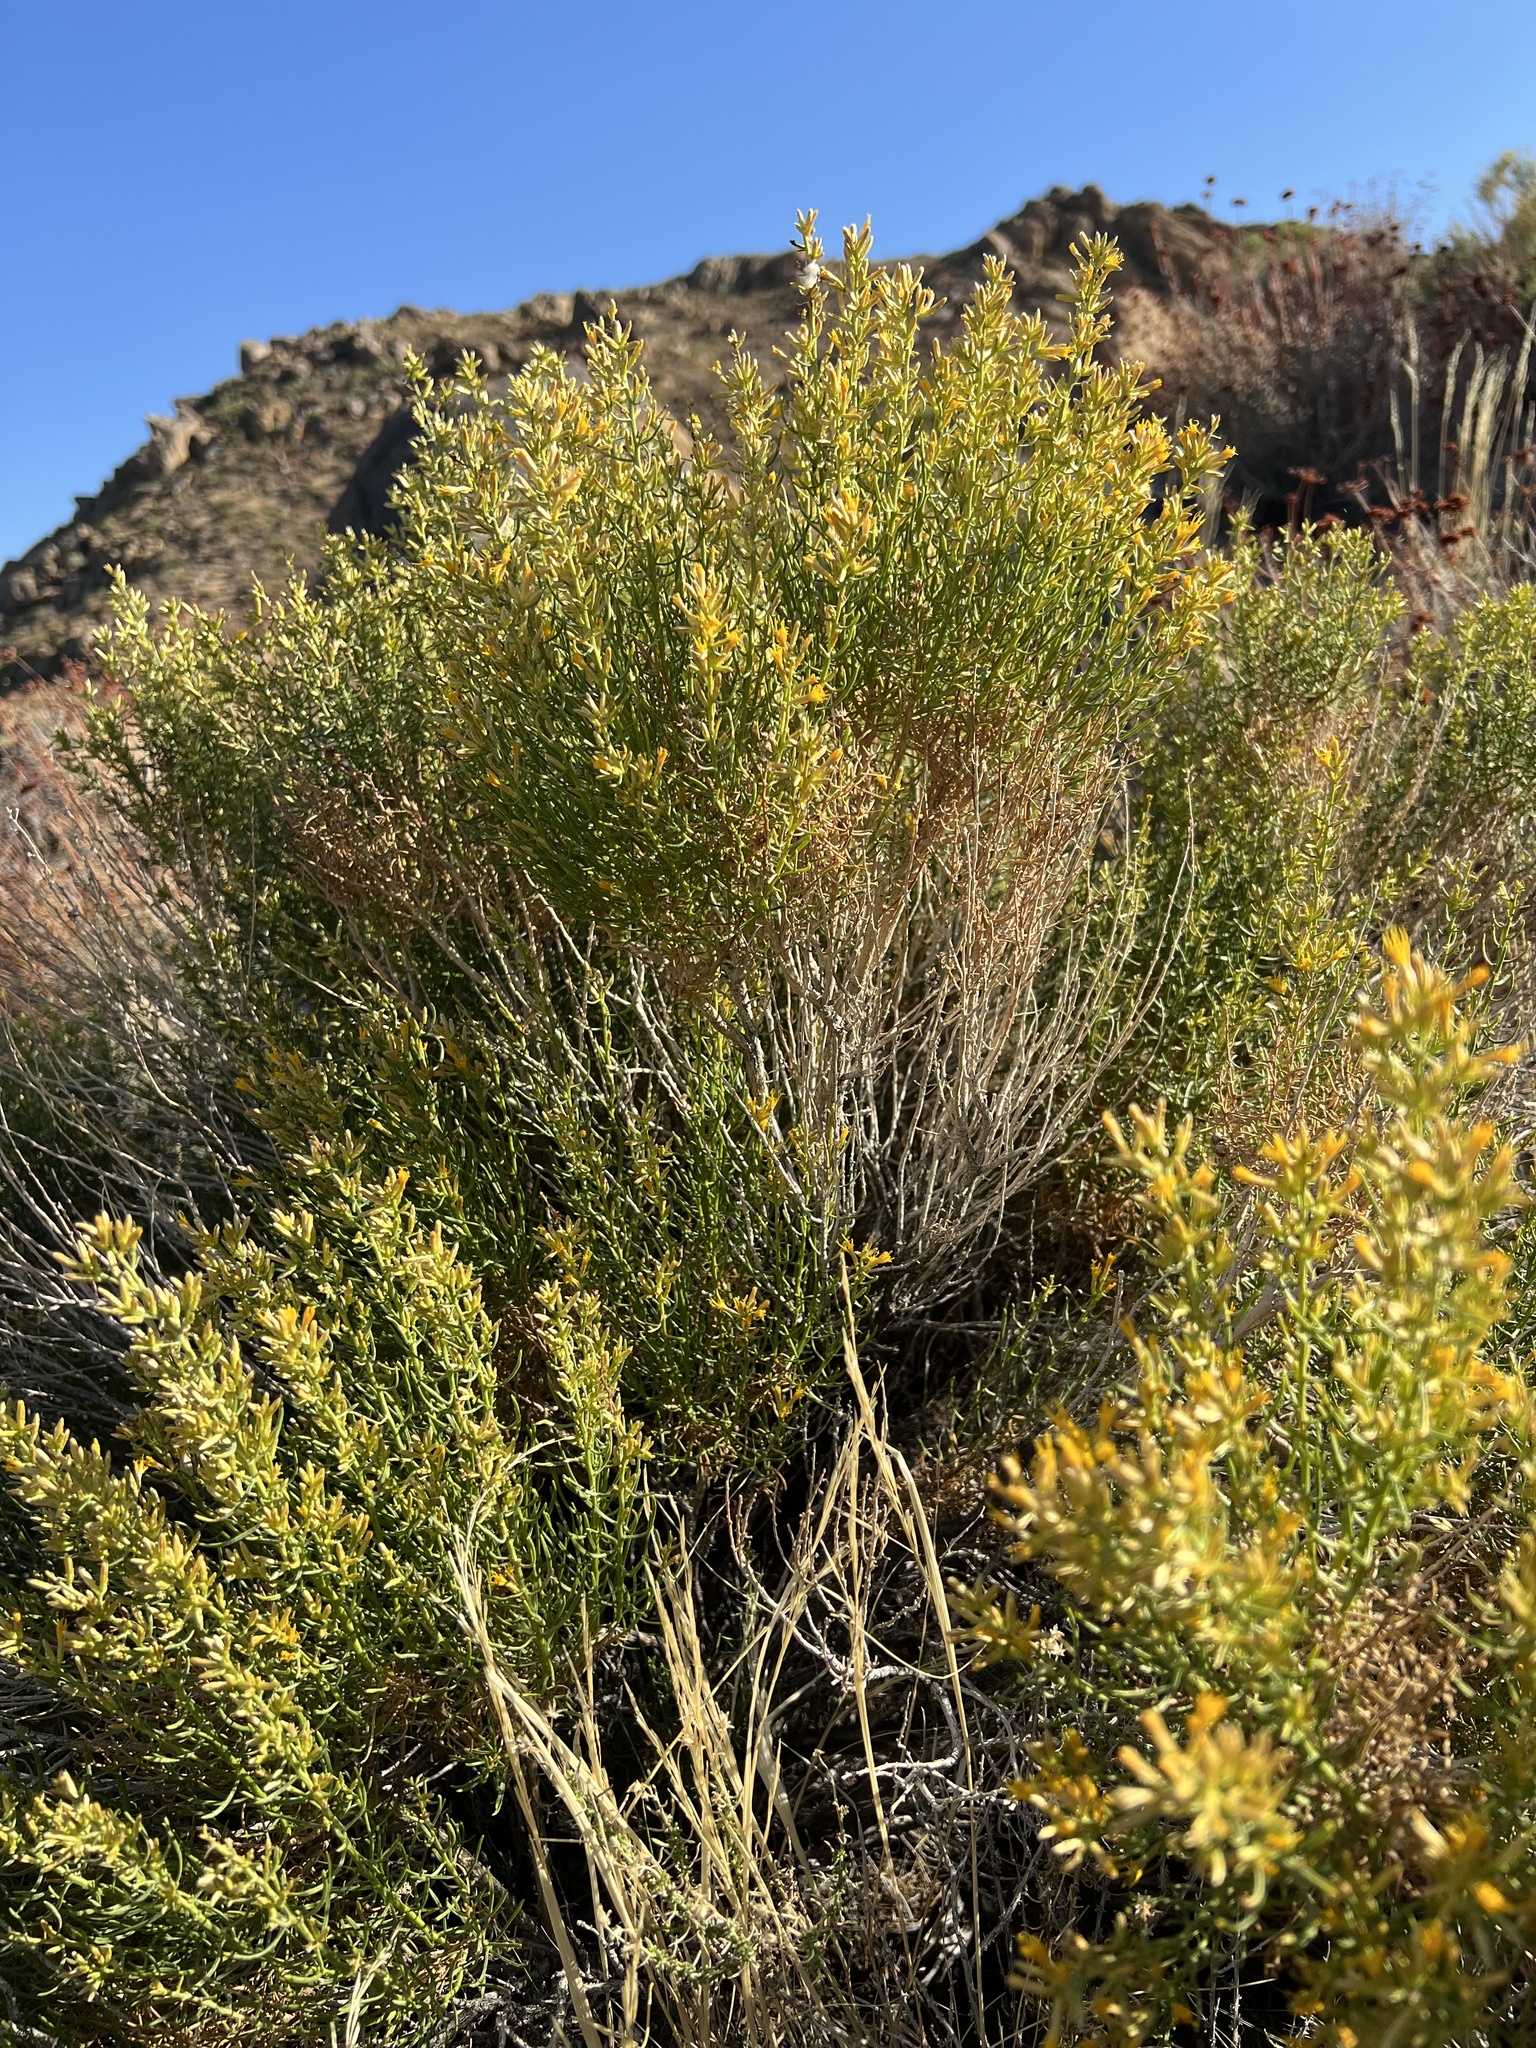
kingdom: Plantae
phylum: Tracheophyta
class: Magnoliopsida
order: Asterales
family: Asteraceae
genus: Ericameria
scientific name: Ericameria teretifolia
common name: Round-leaf rabbitbrush
